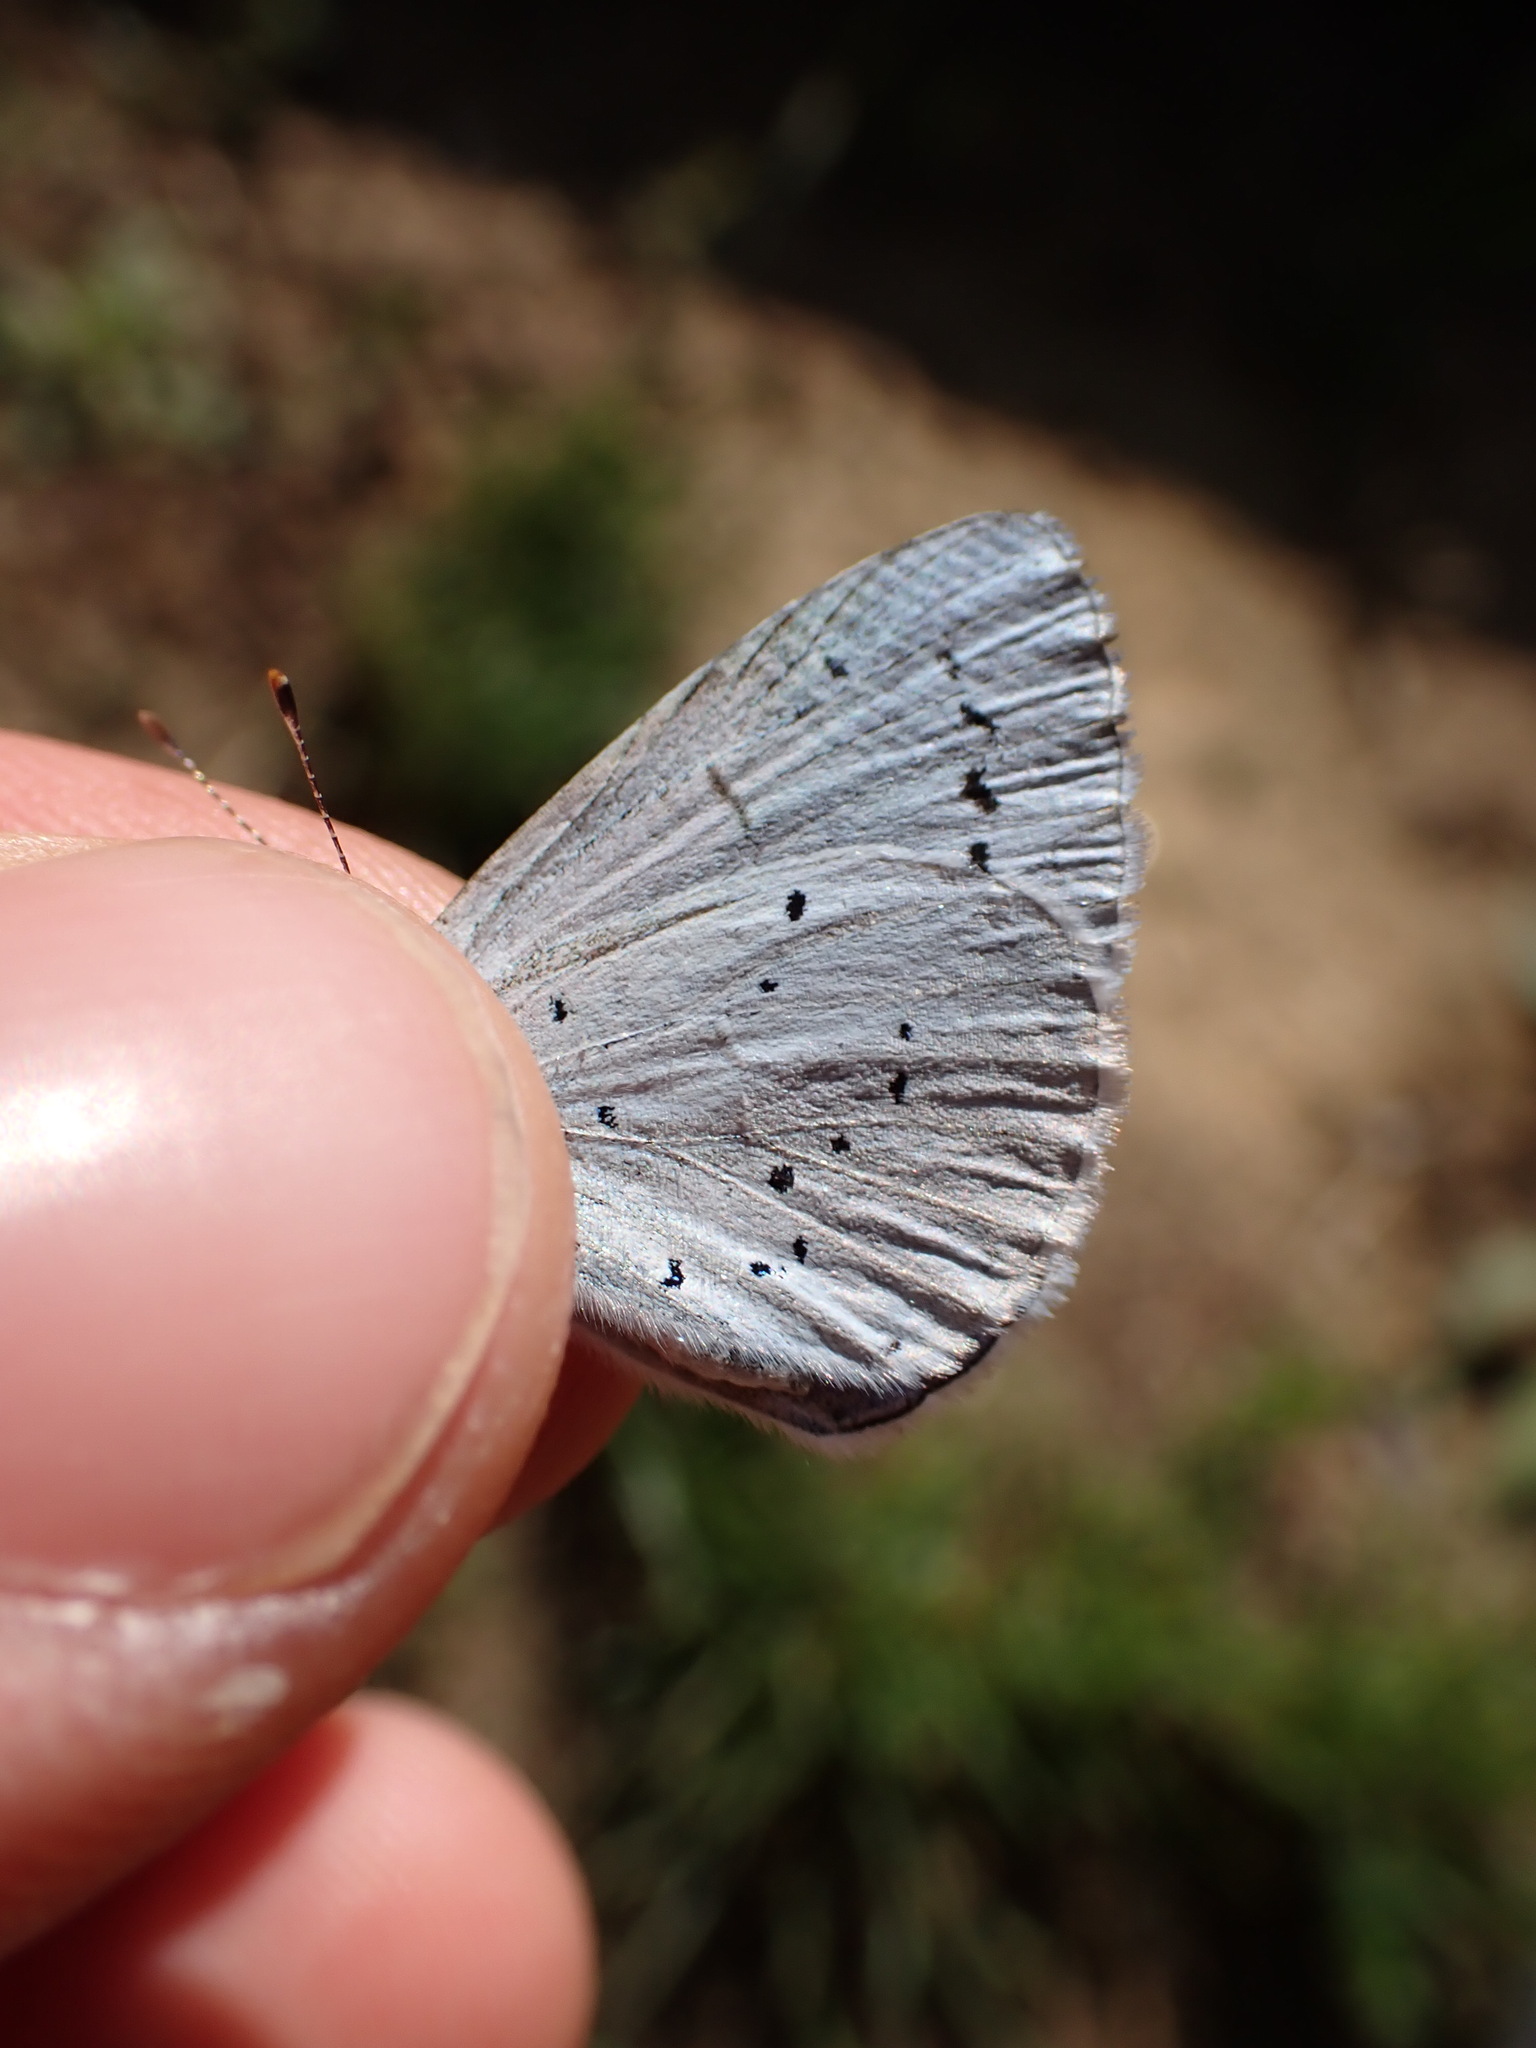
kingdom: Animalia
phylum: Arthropoda
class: Insecta
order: Lepidoptera
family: Lycaenidae
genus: Celastrina
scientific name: Celastrina argiolus
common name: Holly blue
